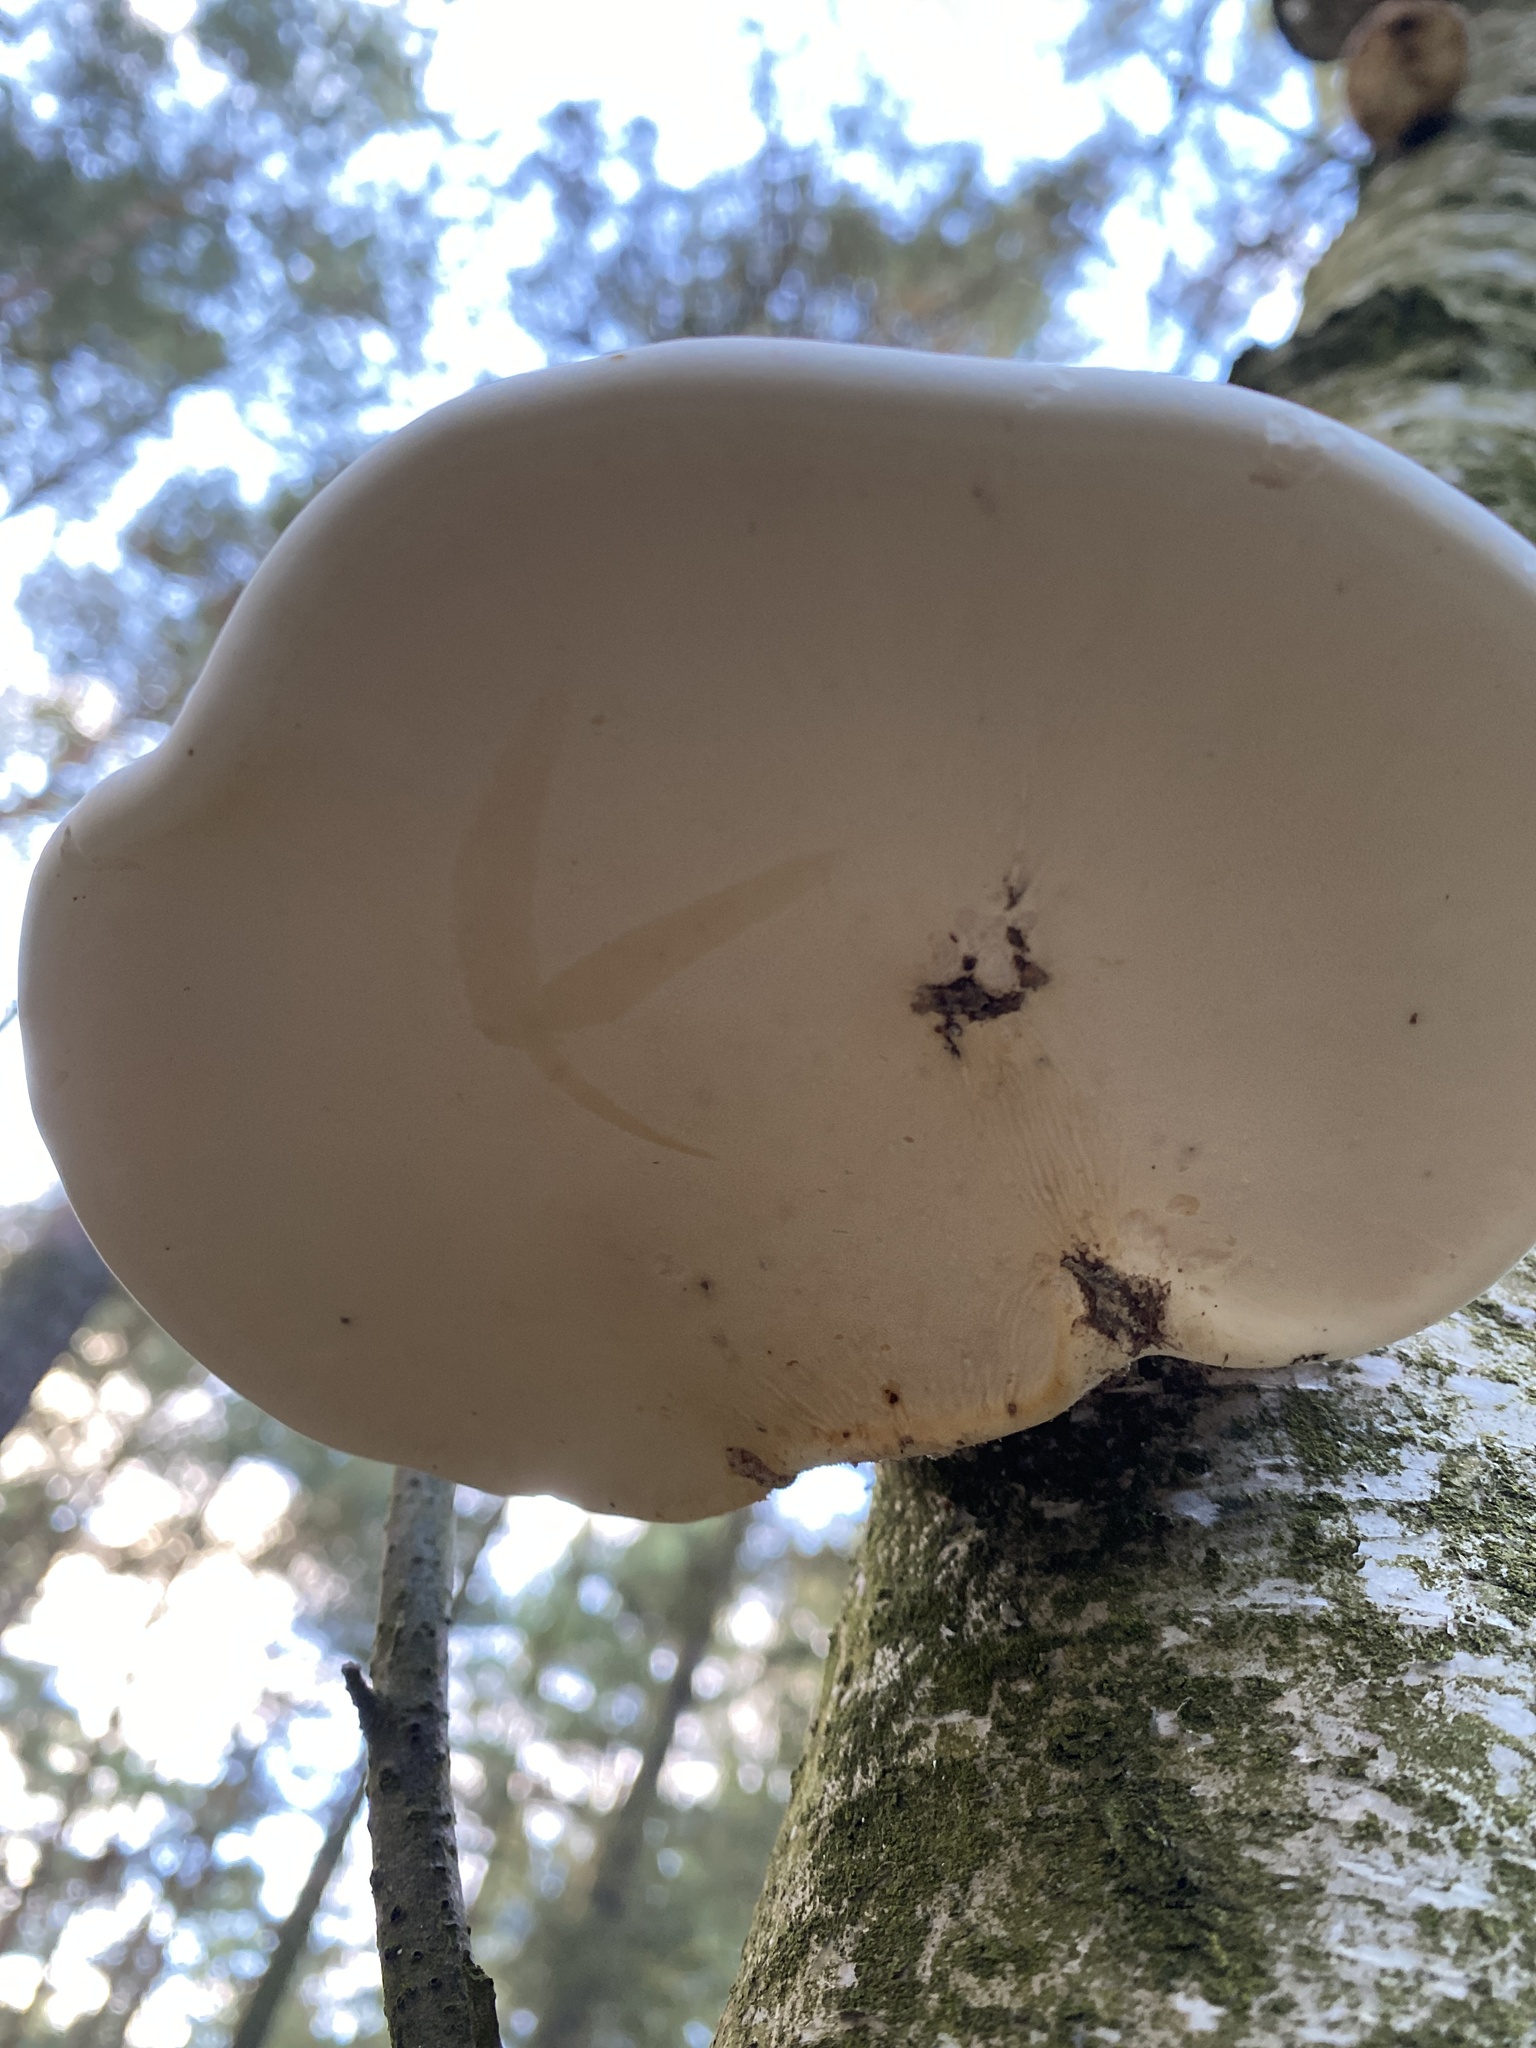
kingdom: Fungi
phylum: Basidiomycota
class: Agaricomycetes
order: Polyporales
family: Fomitopsidaceae
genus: Fomitopsis
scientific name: Fomitopsis betulina
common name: Birch polypore
